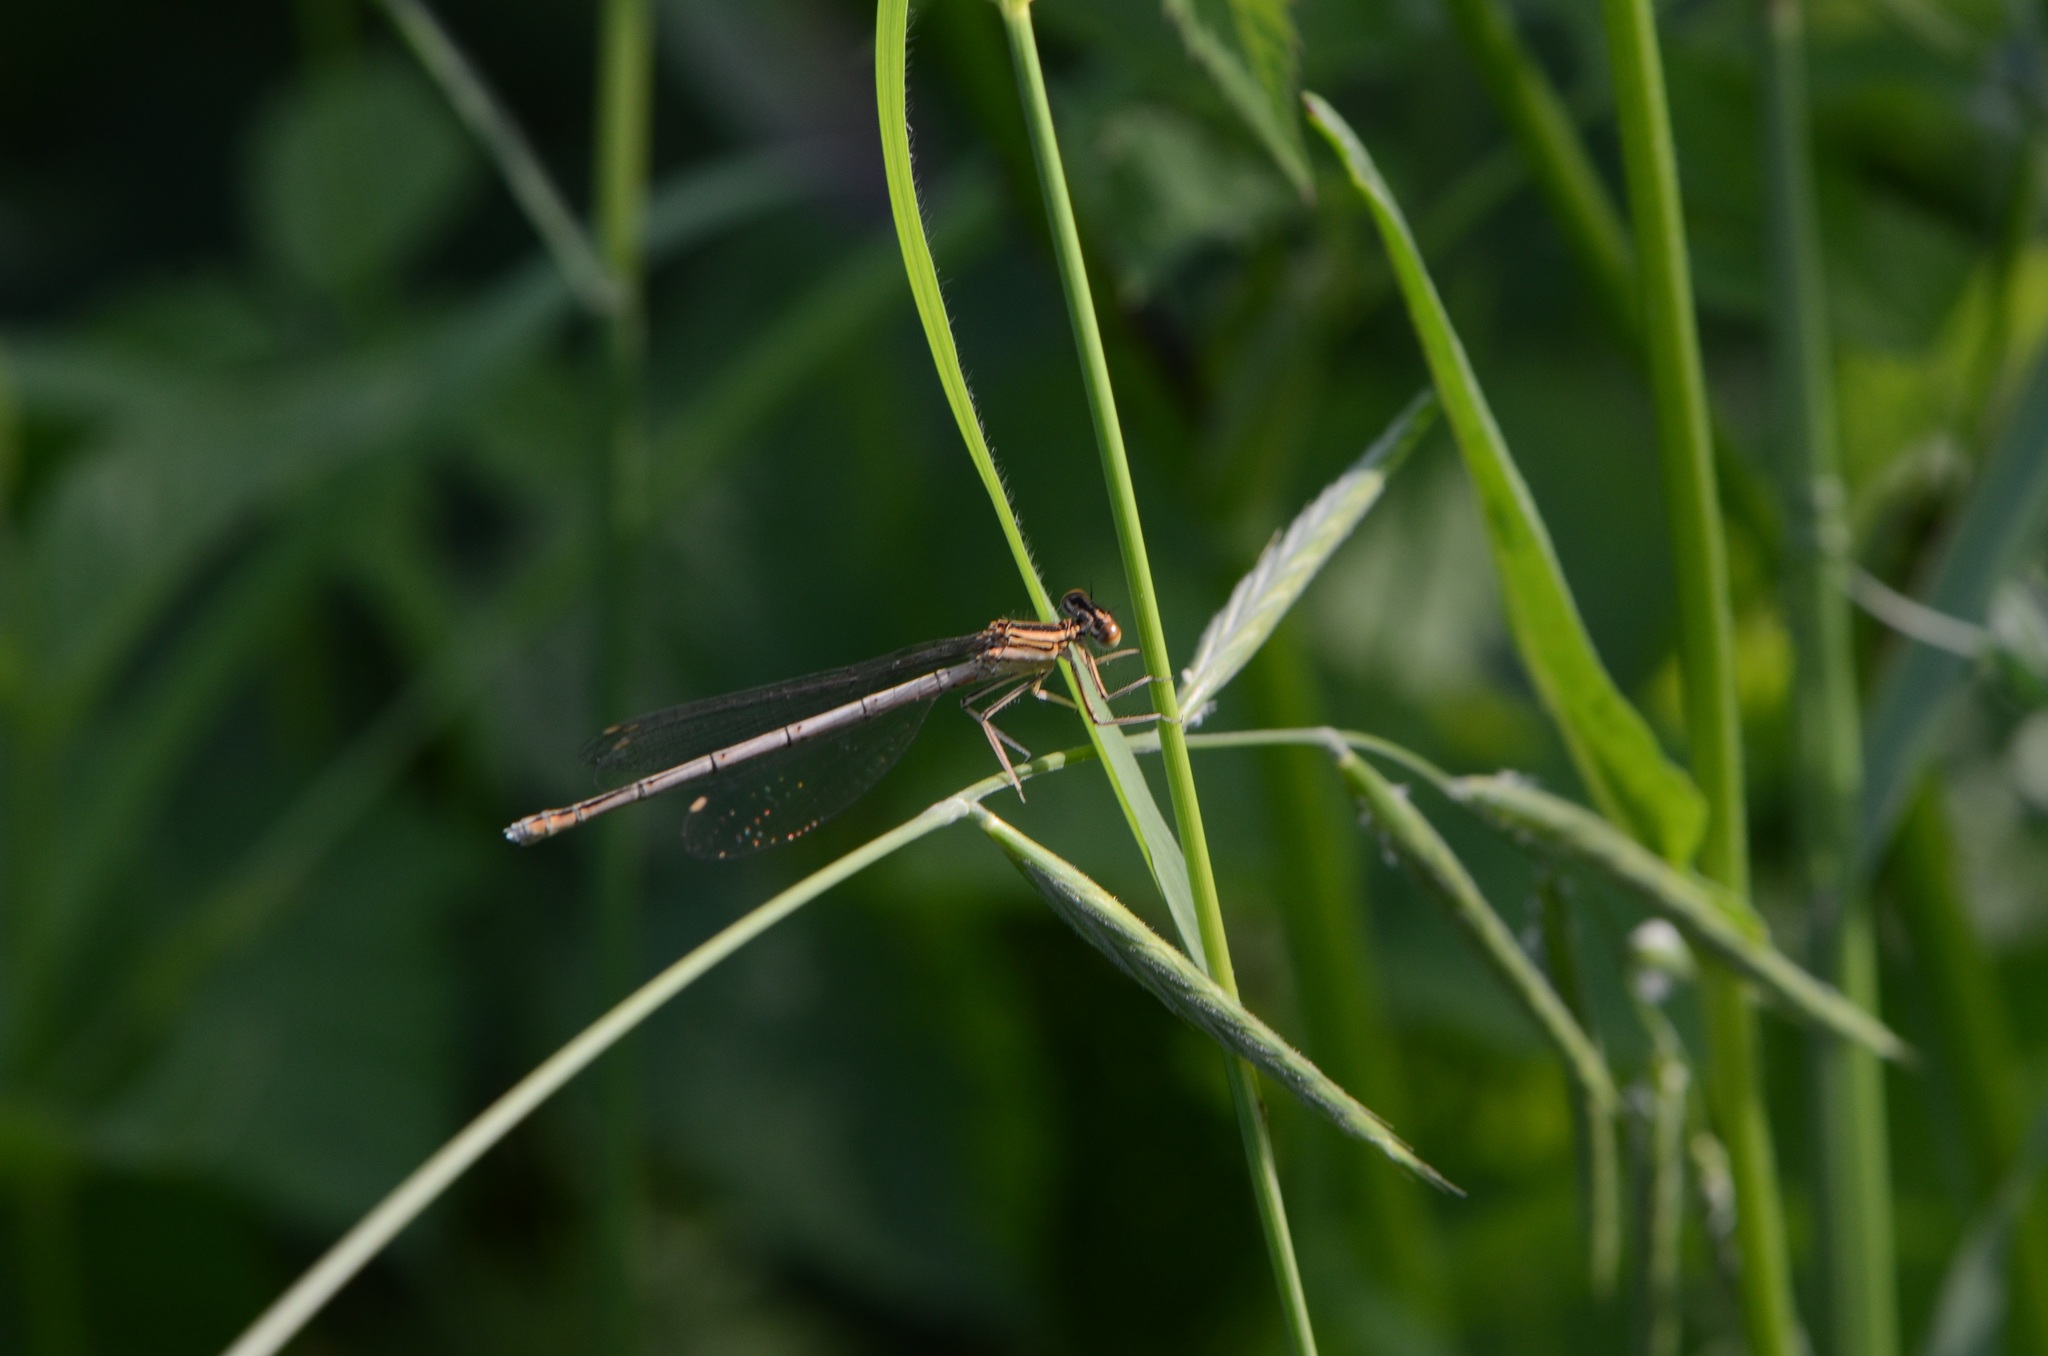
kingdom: Animalia
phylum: Arthropoda
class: Insecta
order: Odonata
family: Platycnemididae
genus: Platycnemis
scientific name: Platycnemis pennipes
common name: White-legged damselfly
